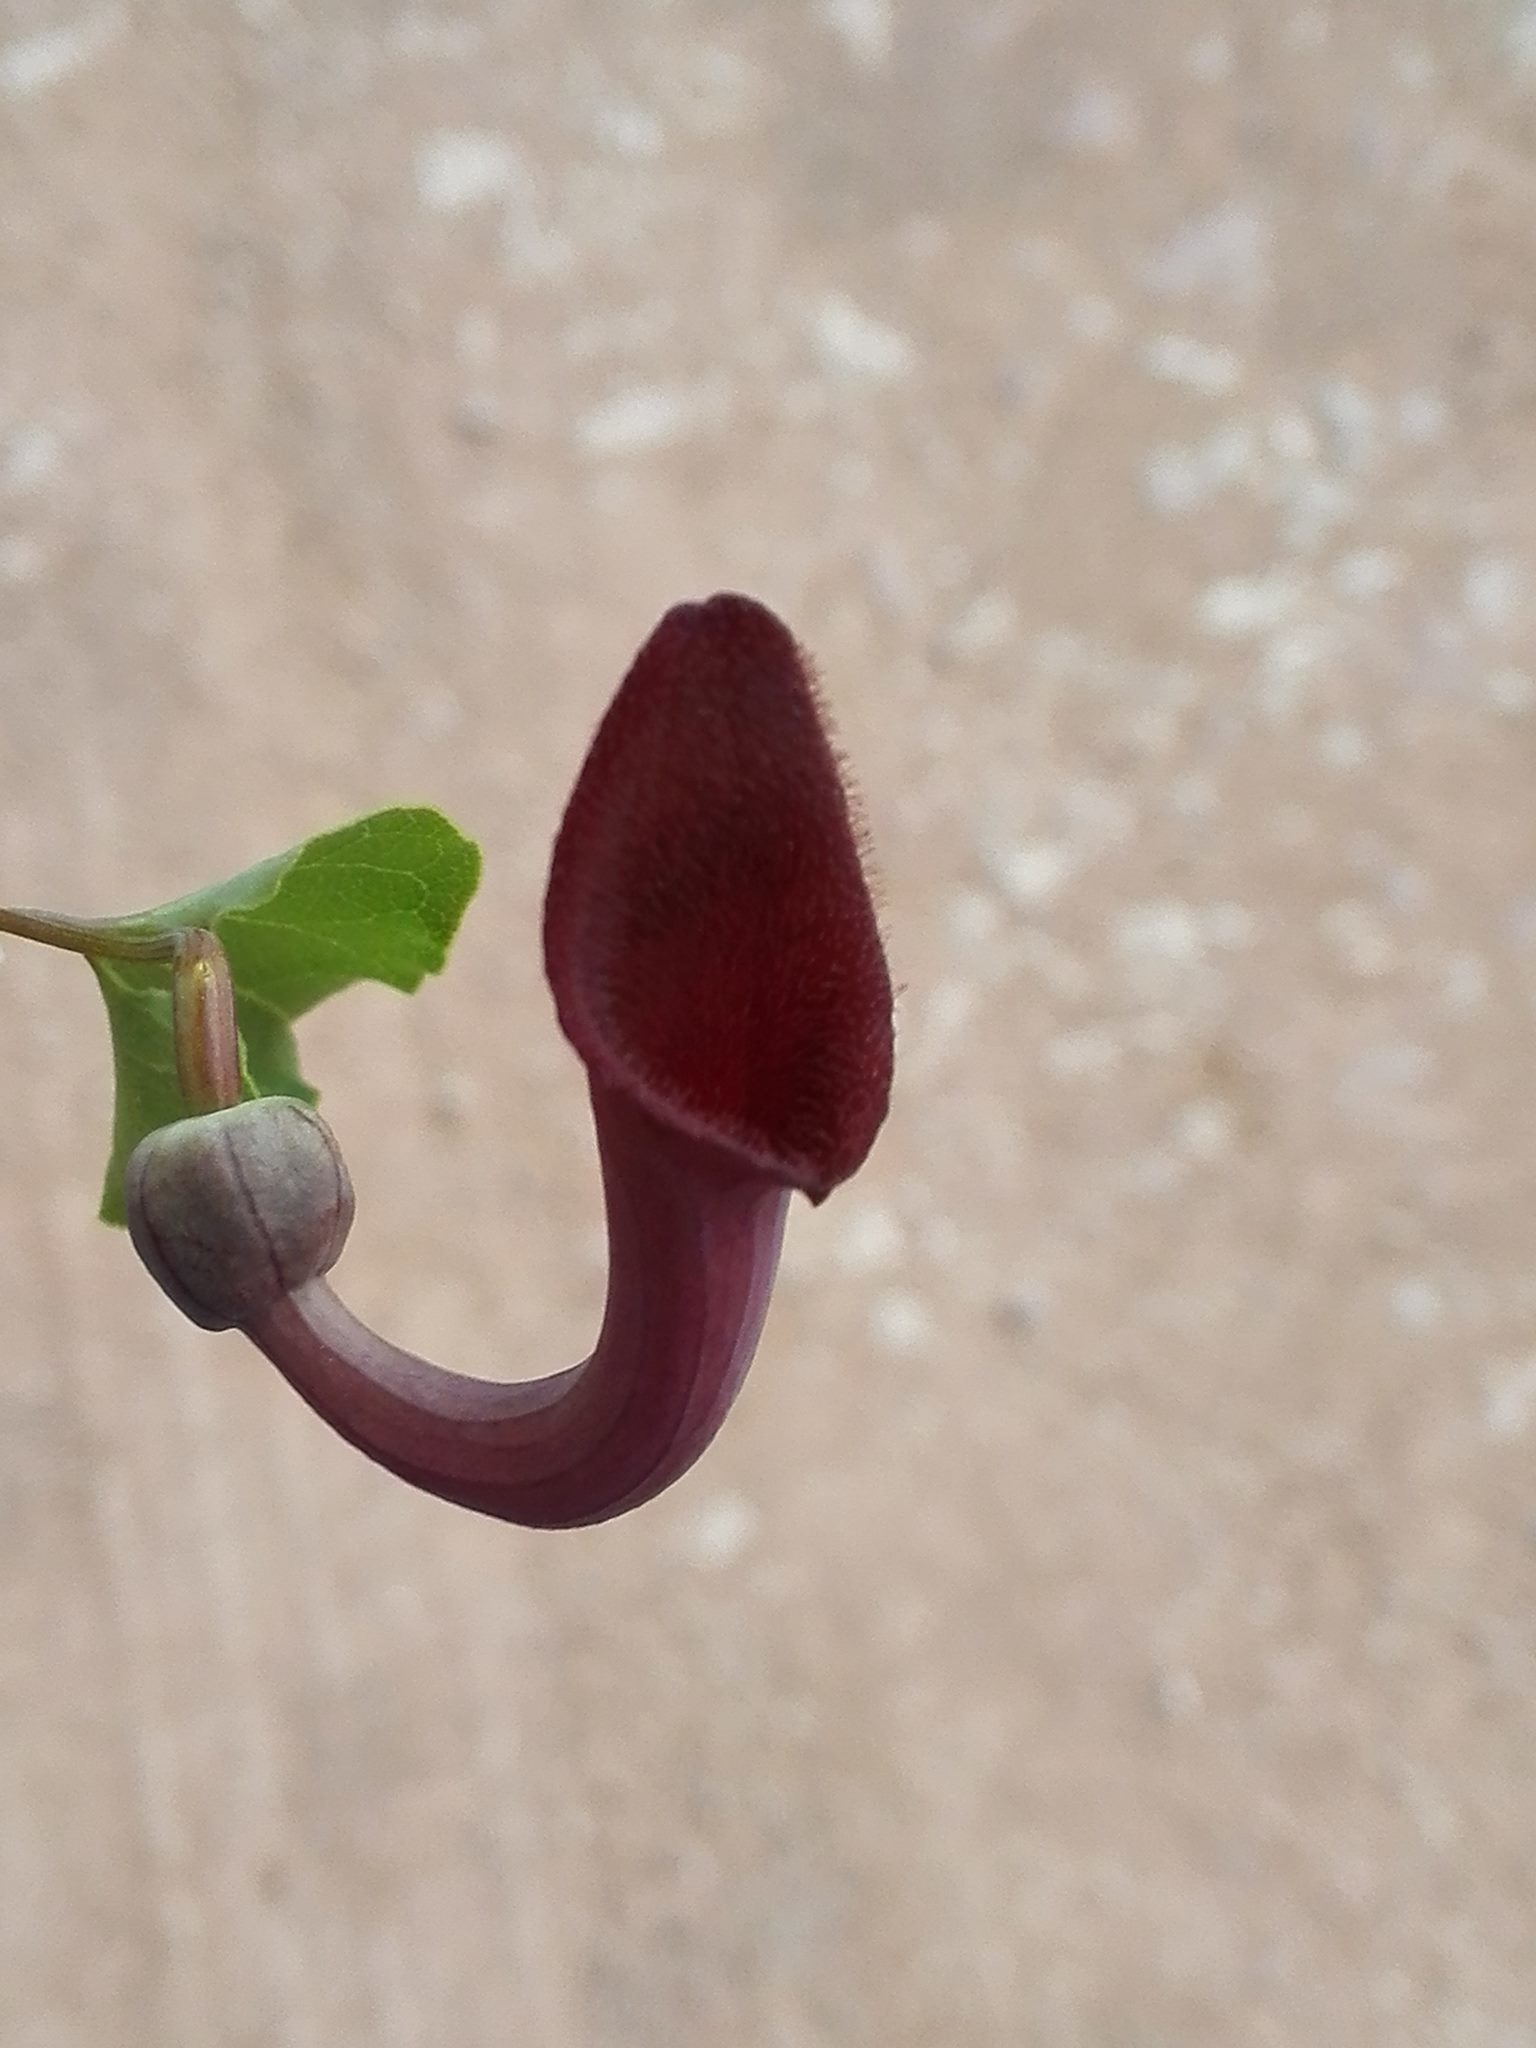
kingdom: Plantae
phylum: Tracheophyta
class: Magnoliopsida
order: Piperales
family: Aristolochiaceae
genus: Aristolochia
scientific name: Aristolochia baetica
